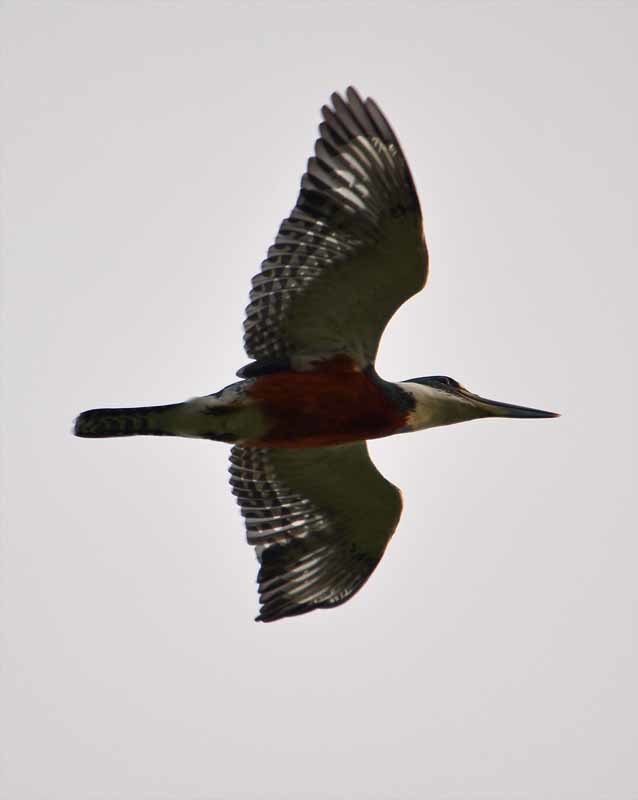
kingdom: Animalia
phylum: Chordata
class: Aves
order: Coraciiformes
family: Alcedinidae
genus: Megaceryle
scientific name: Megaceryle torquata
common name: Ringed kingfisher
